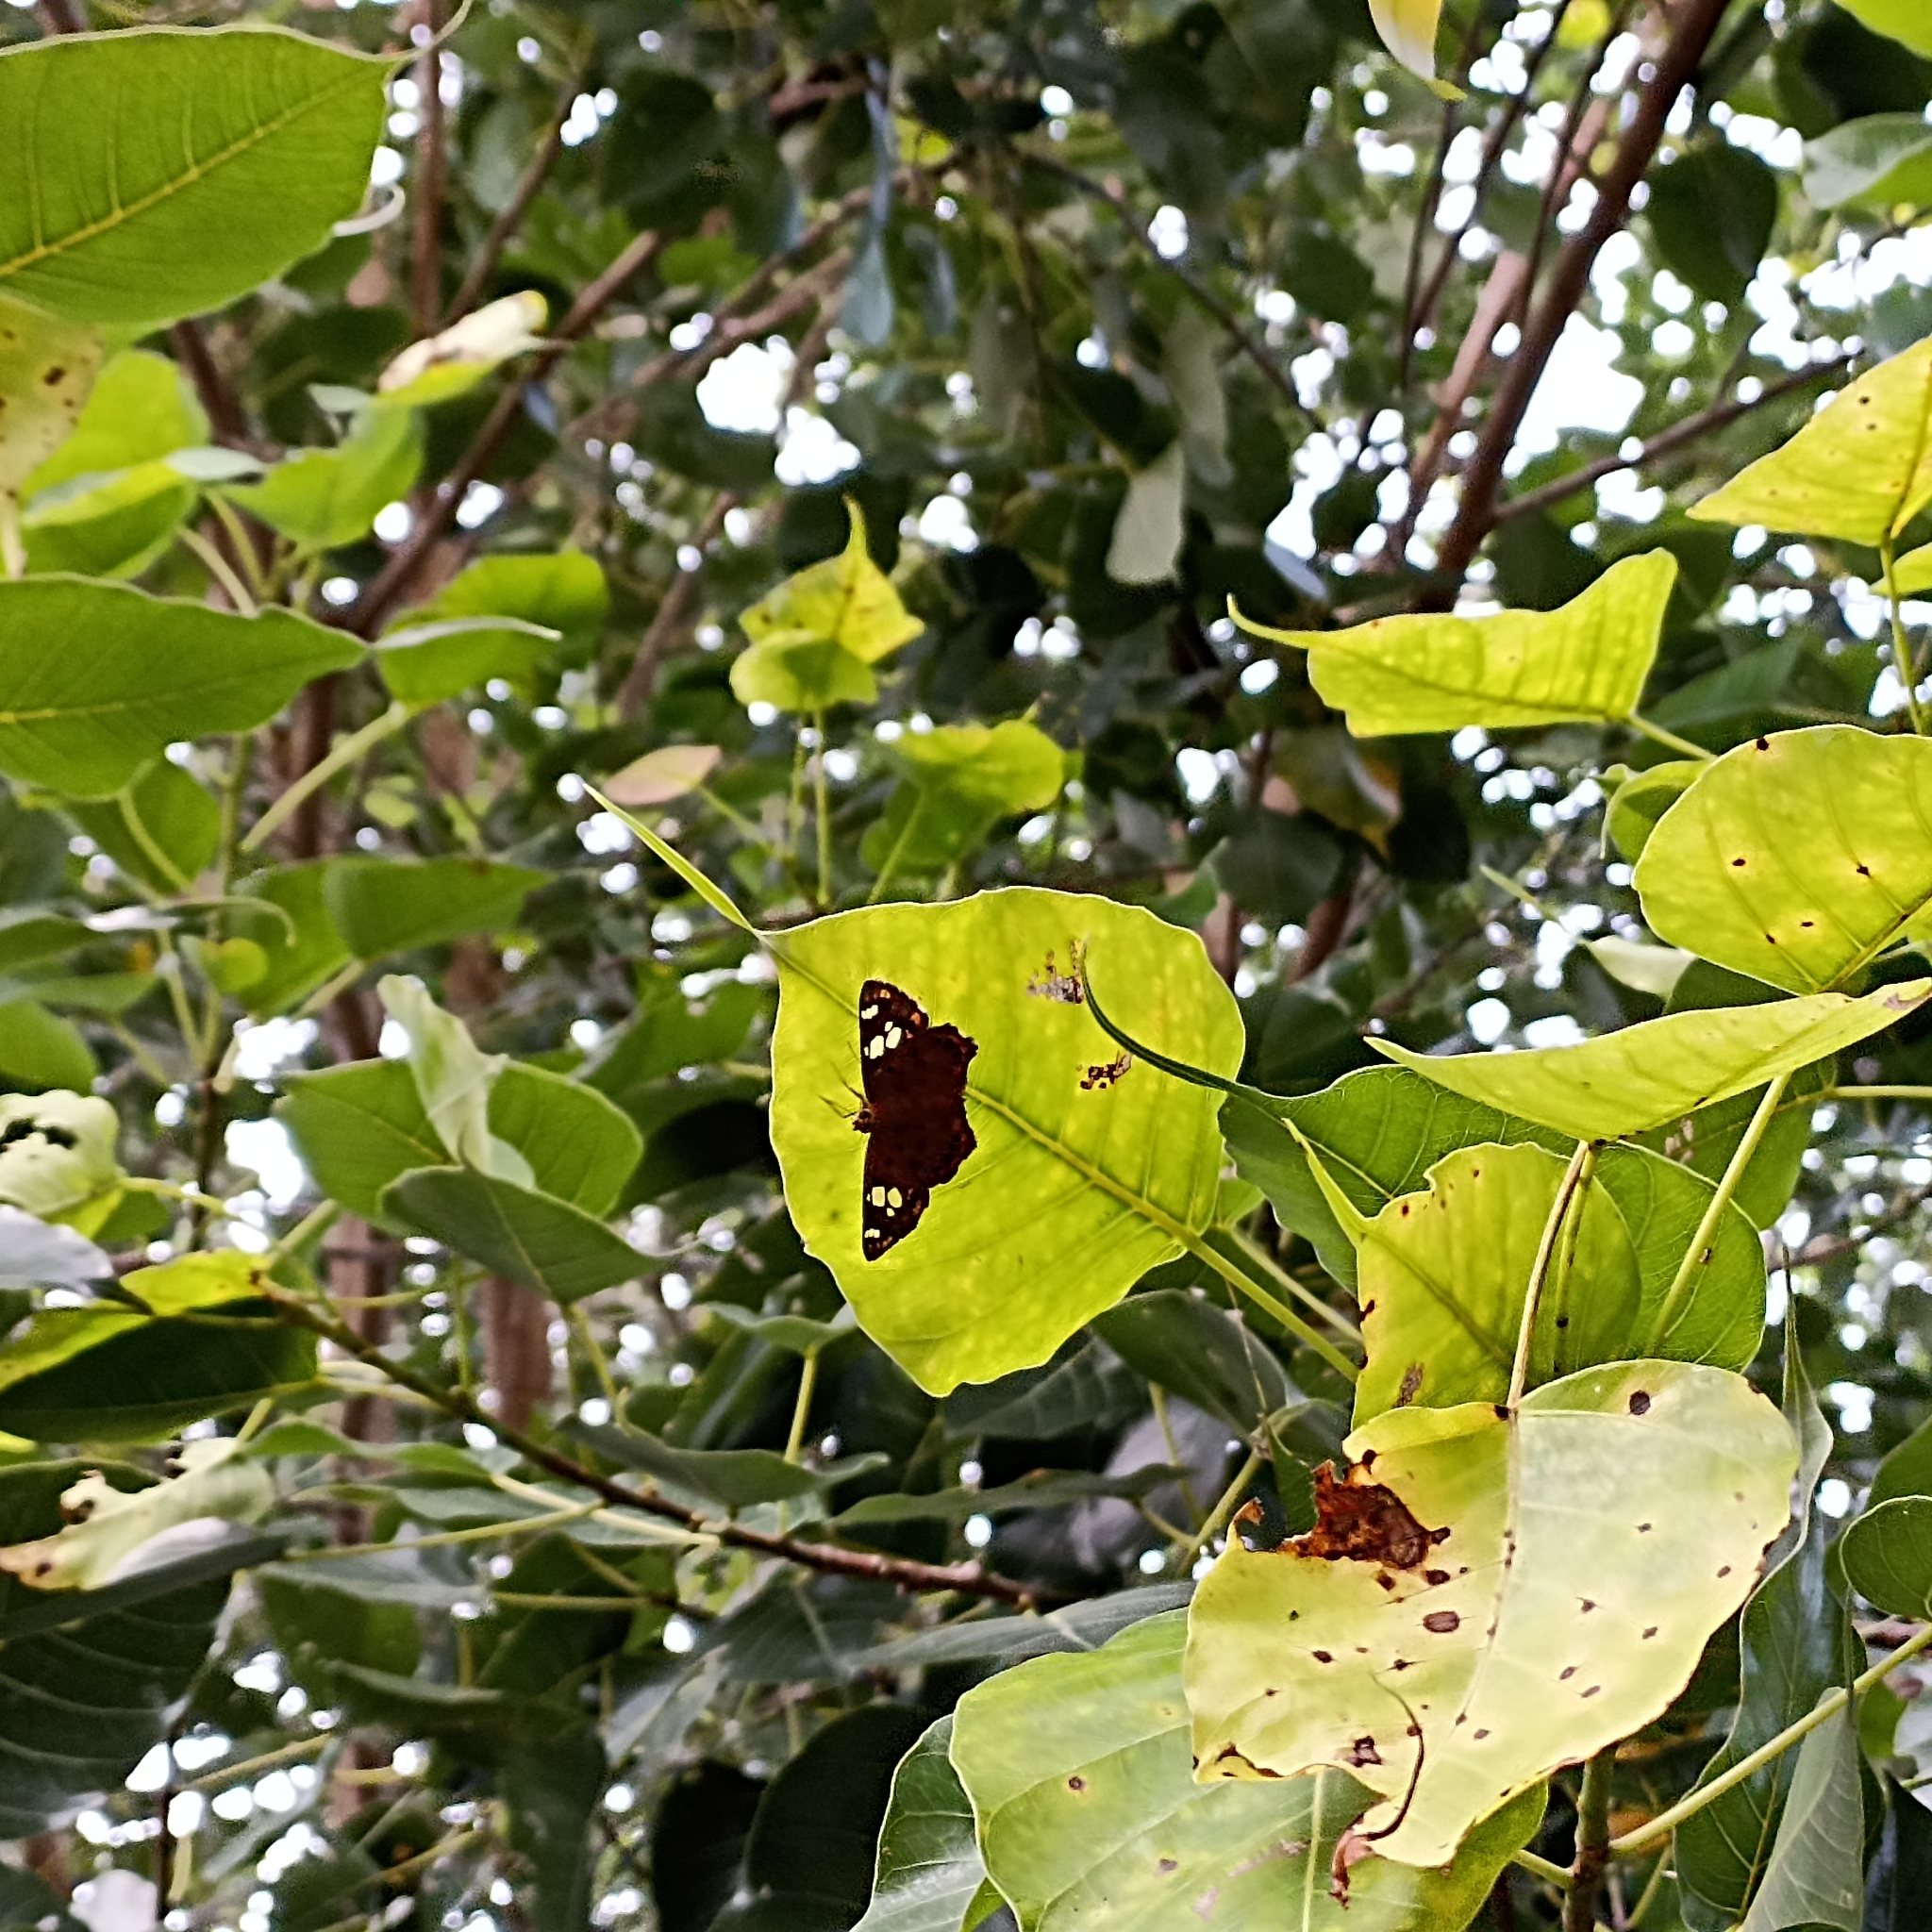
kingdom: Animalia
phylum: Arthropoda
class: Insecta
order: Lepidoptera
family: Hesperiidae
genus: Coladenia
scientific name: Coladenia
